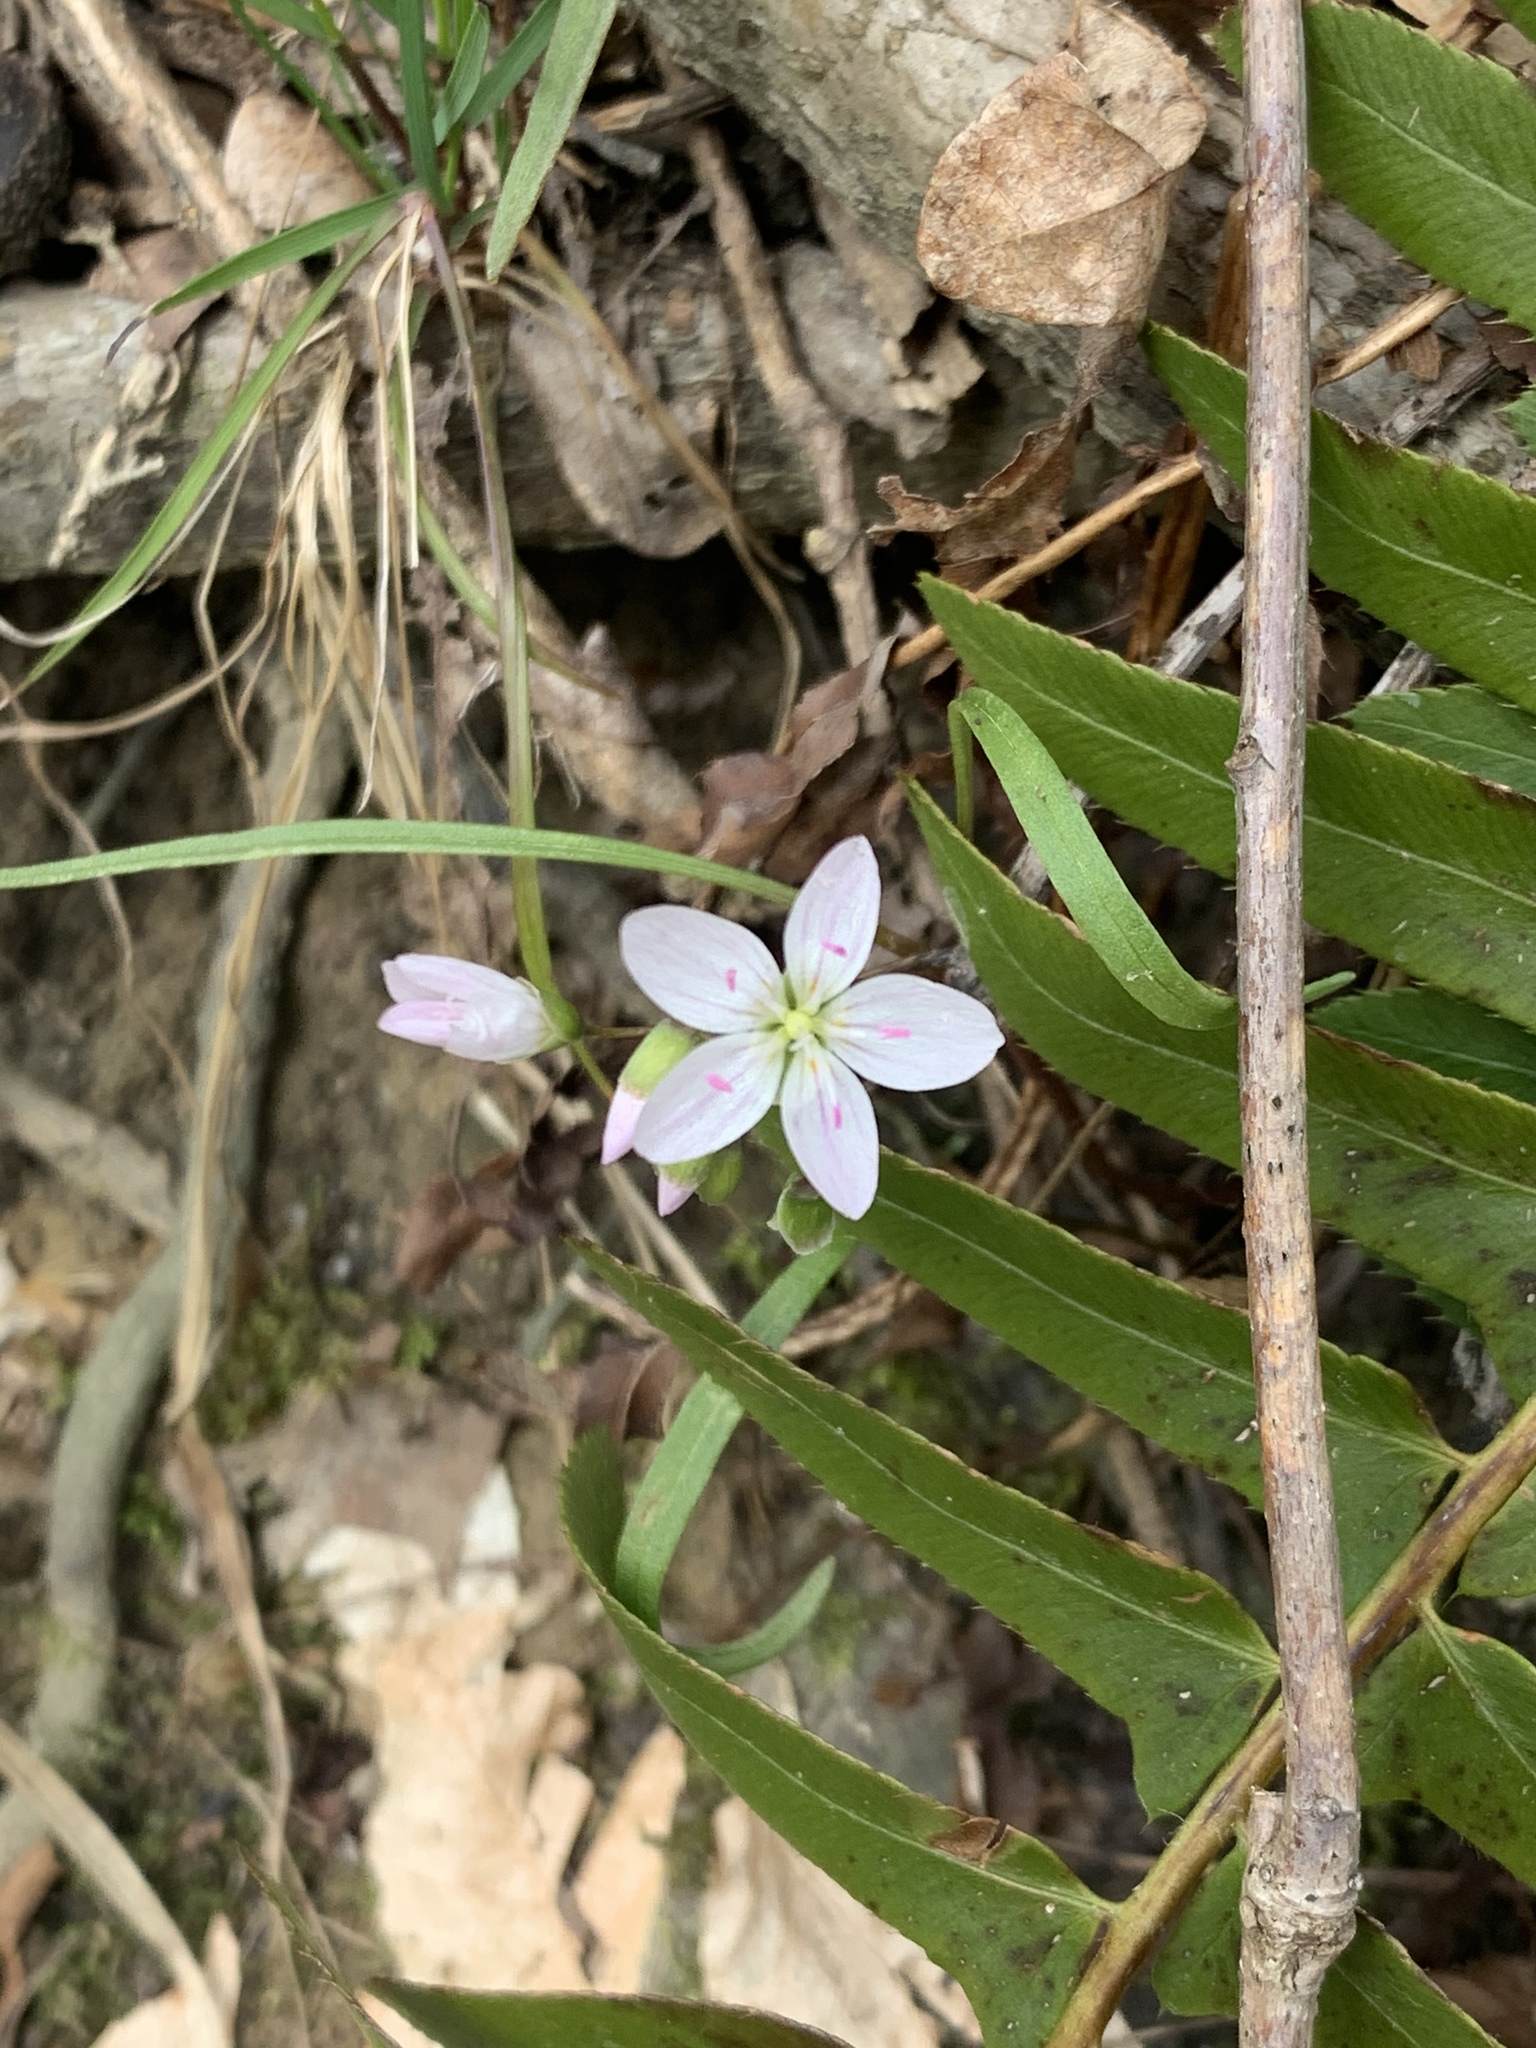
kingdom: Plantae
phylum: Tracheophyta
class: Magnoliopsida
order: Caryophyllales
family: Montiaceae
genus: Claytonia
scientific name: Claytonia virginica
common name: Virginia springbeauty
